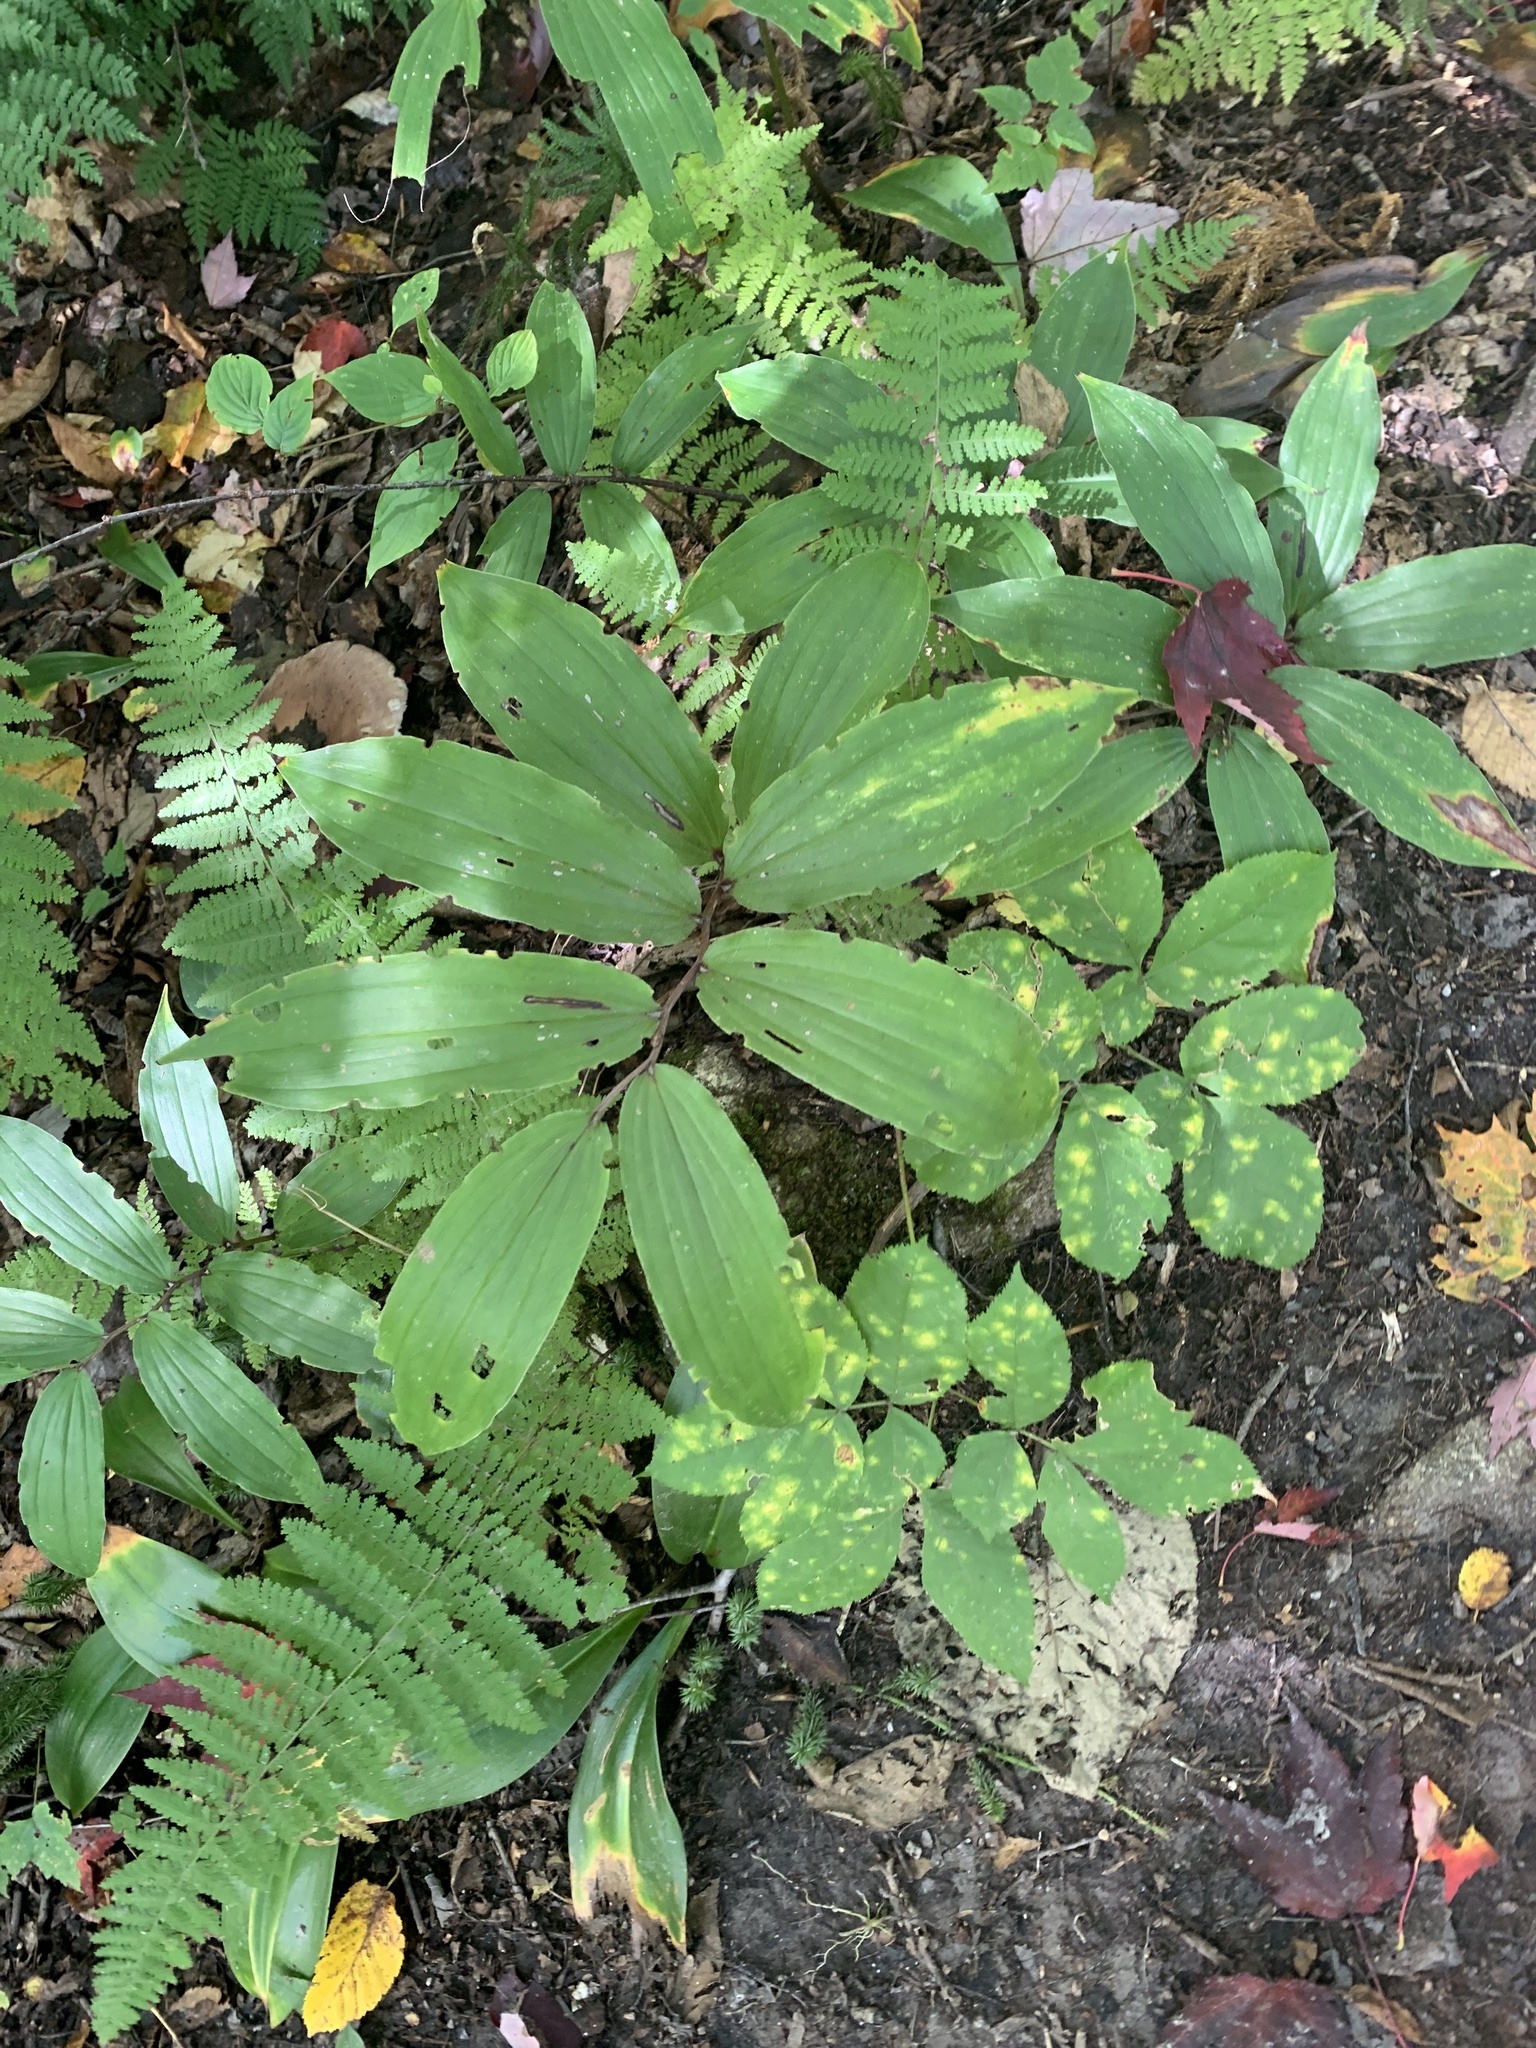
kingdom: Plantae
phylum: Tracheophyta
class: Liliopsida
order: Asparagales
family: Asparagaceae
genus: Maianthemum
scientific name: Maianthemum racemosum
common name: False spikenard
